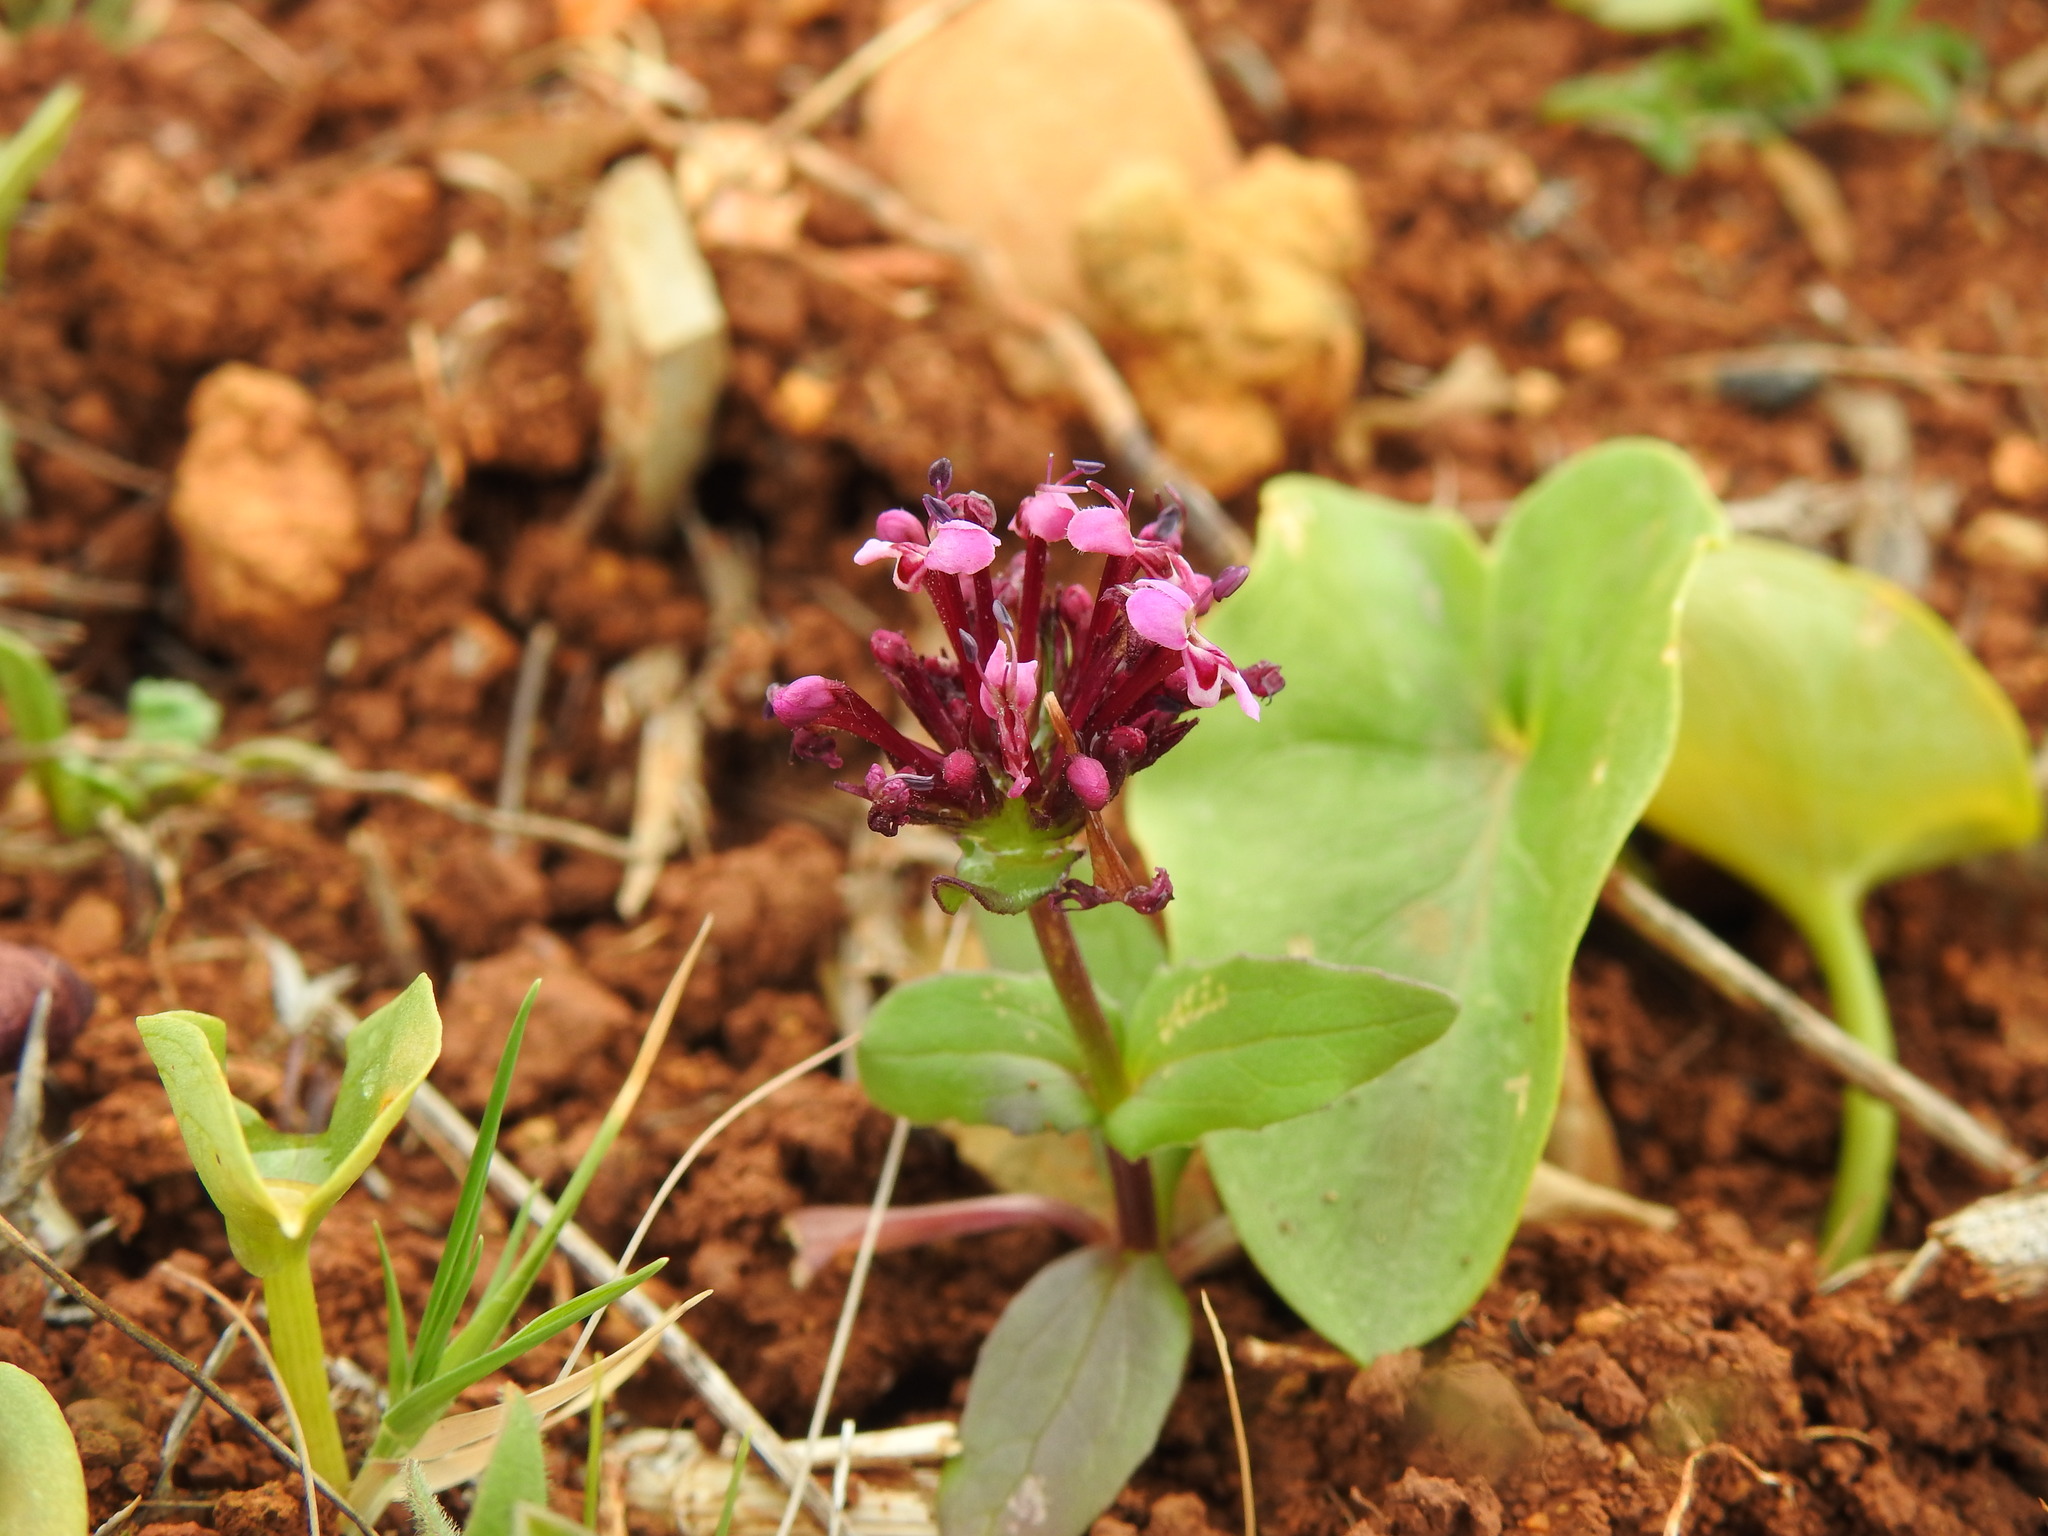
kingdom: Plantae
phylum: Tracheophyta
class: Magnoliopsida
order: Dipsacales
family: Caprifoliaceae
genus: Fedia
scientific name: Fedia cornucopiae
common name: Horn-of-plenty
